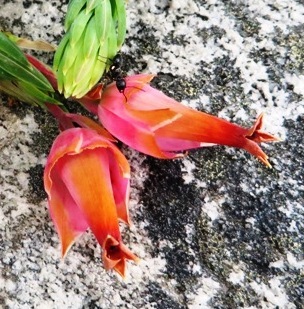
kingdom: Animalia
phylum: Arthropoda
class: Insecta
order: Hymenoptera
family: Formicidae
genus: Crematogaster
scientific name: Crematogaster peringueyi
